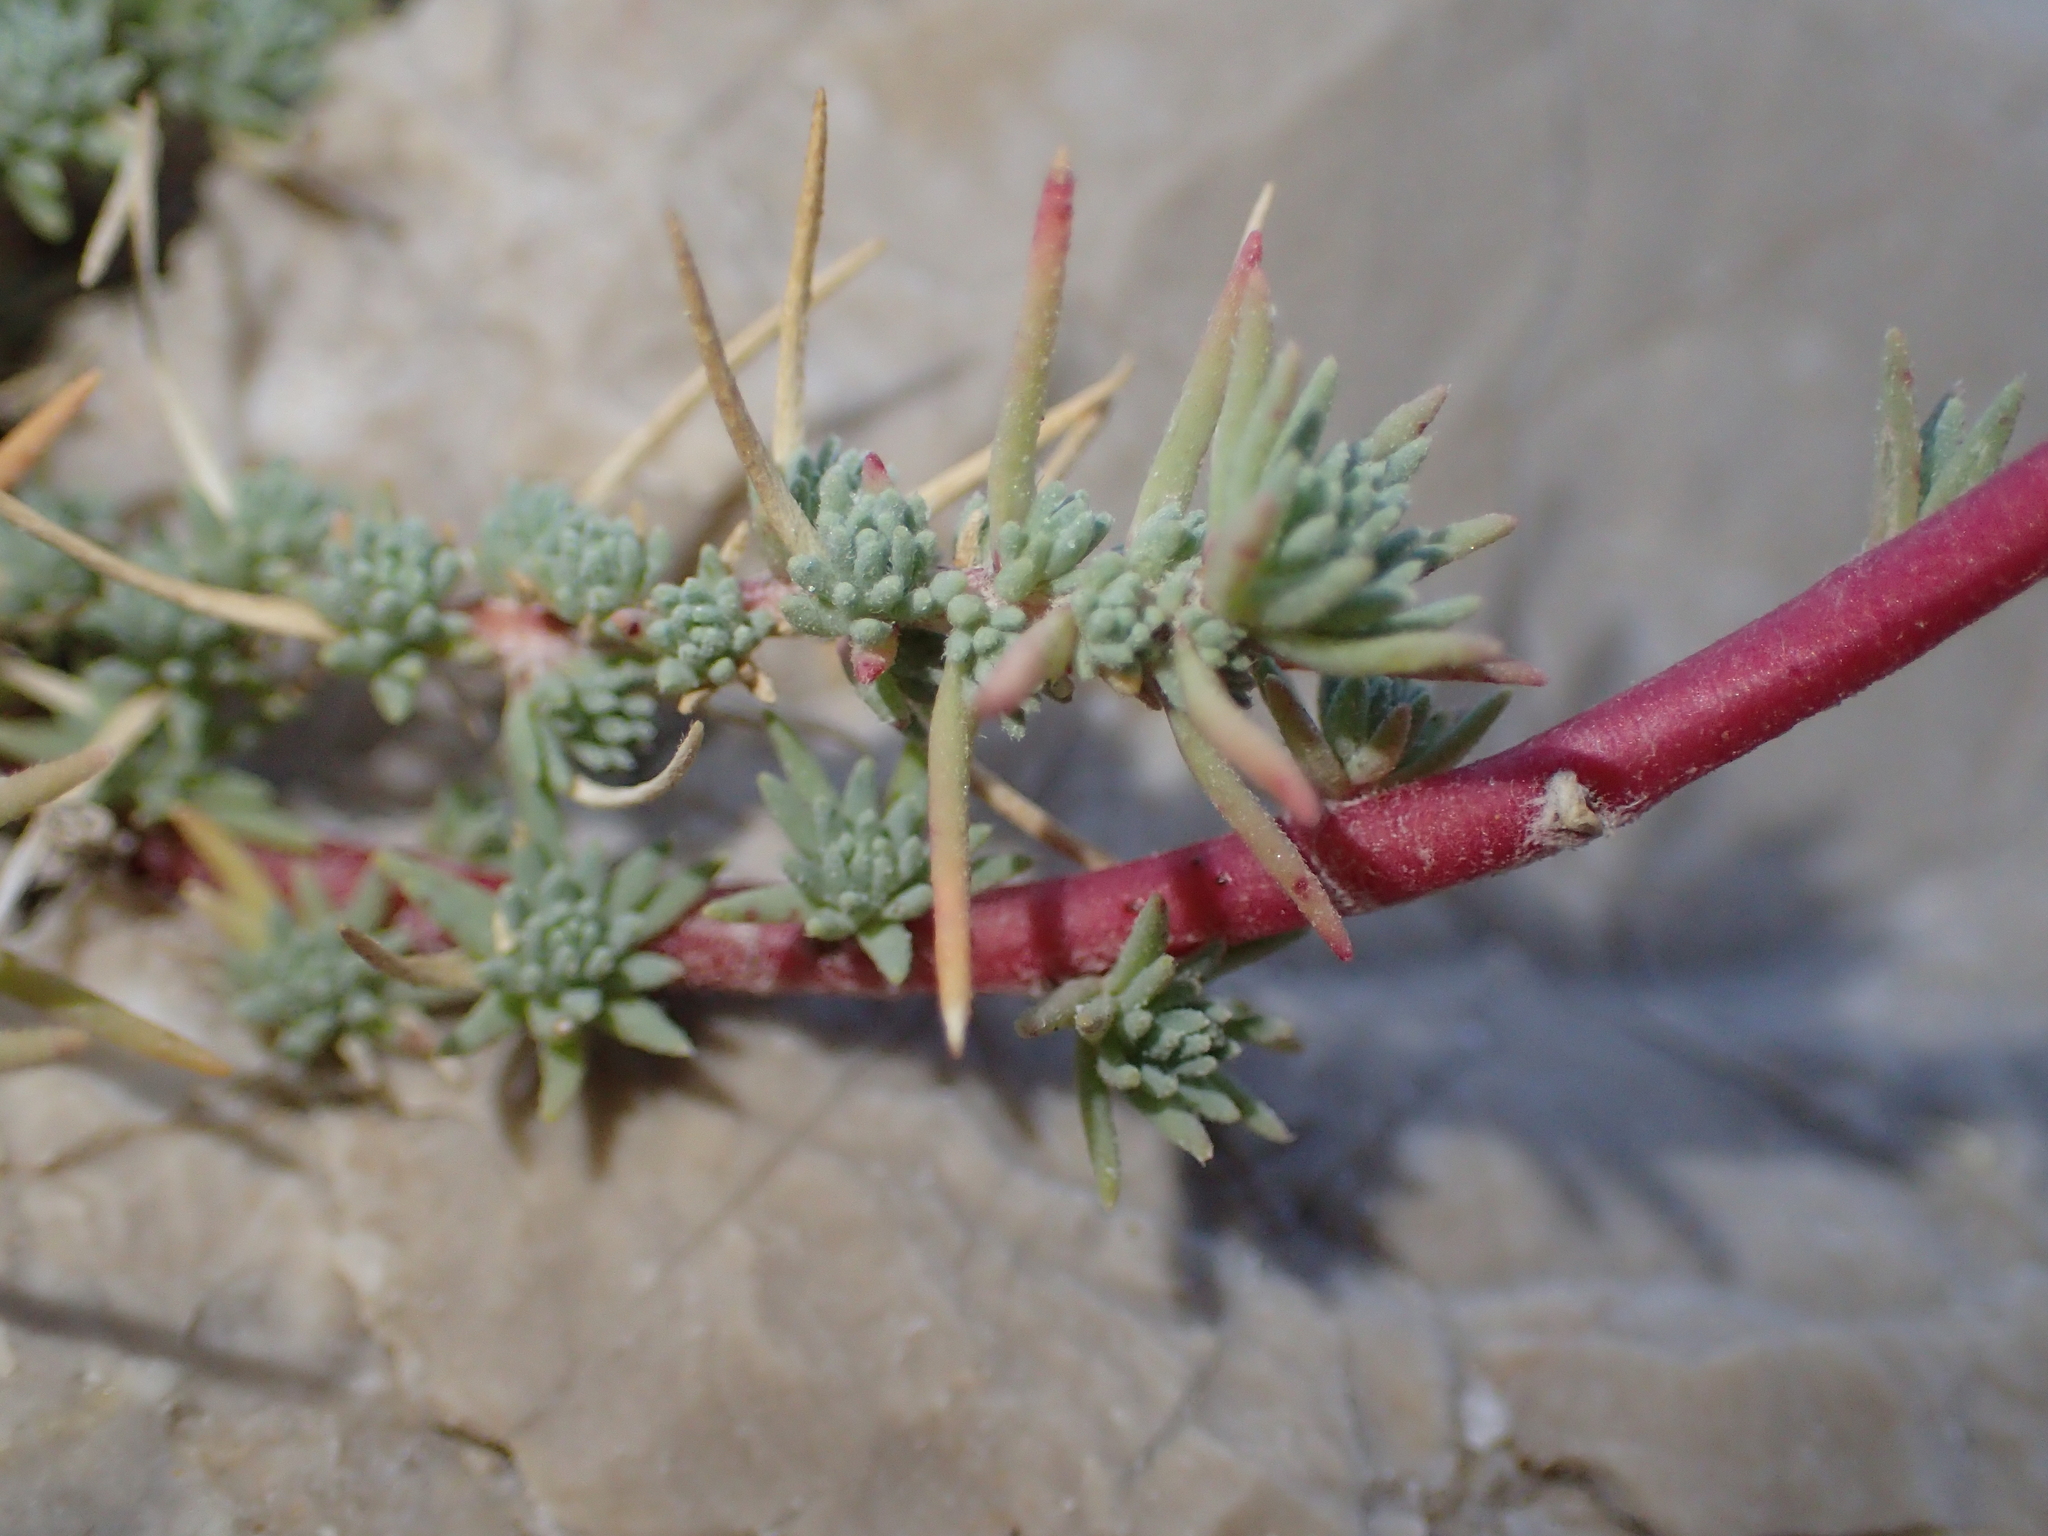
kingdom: Plantae
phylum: Tracheophyta
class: Magnoliopsida
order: Caryophyllales
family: Amaranthaceae
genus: Camphorosma
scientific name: Camphorosma monspeliaca
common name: Camphorfume
